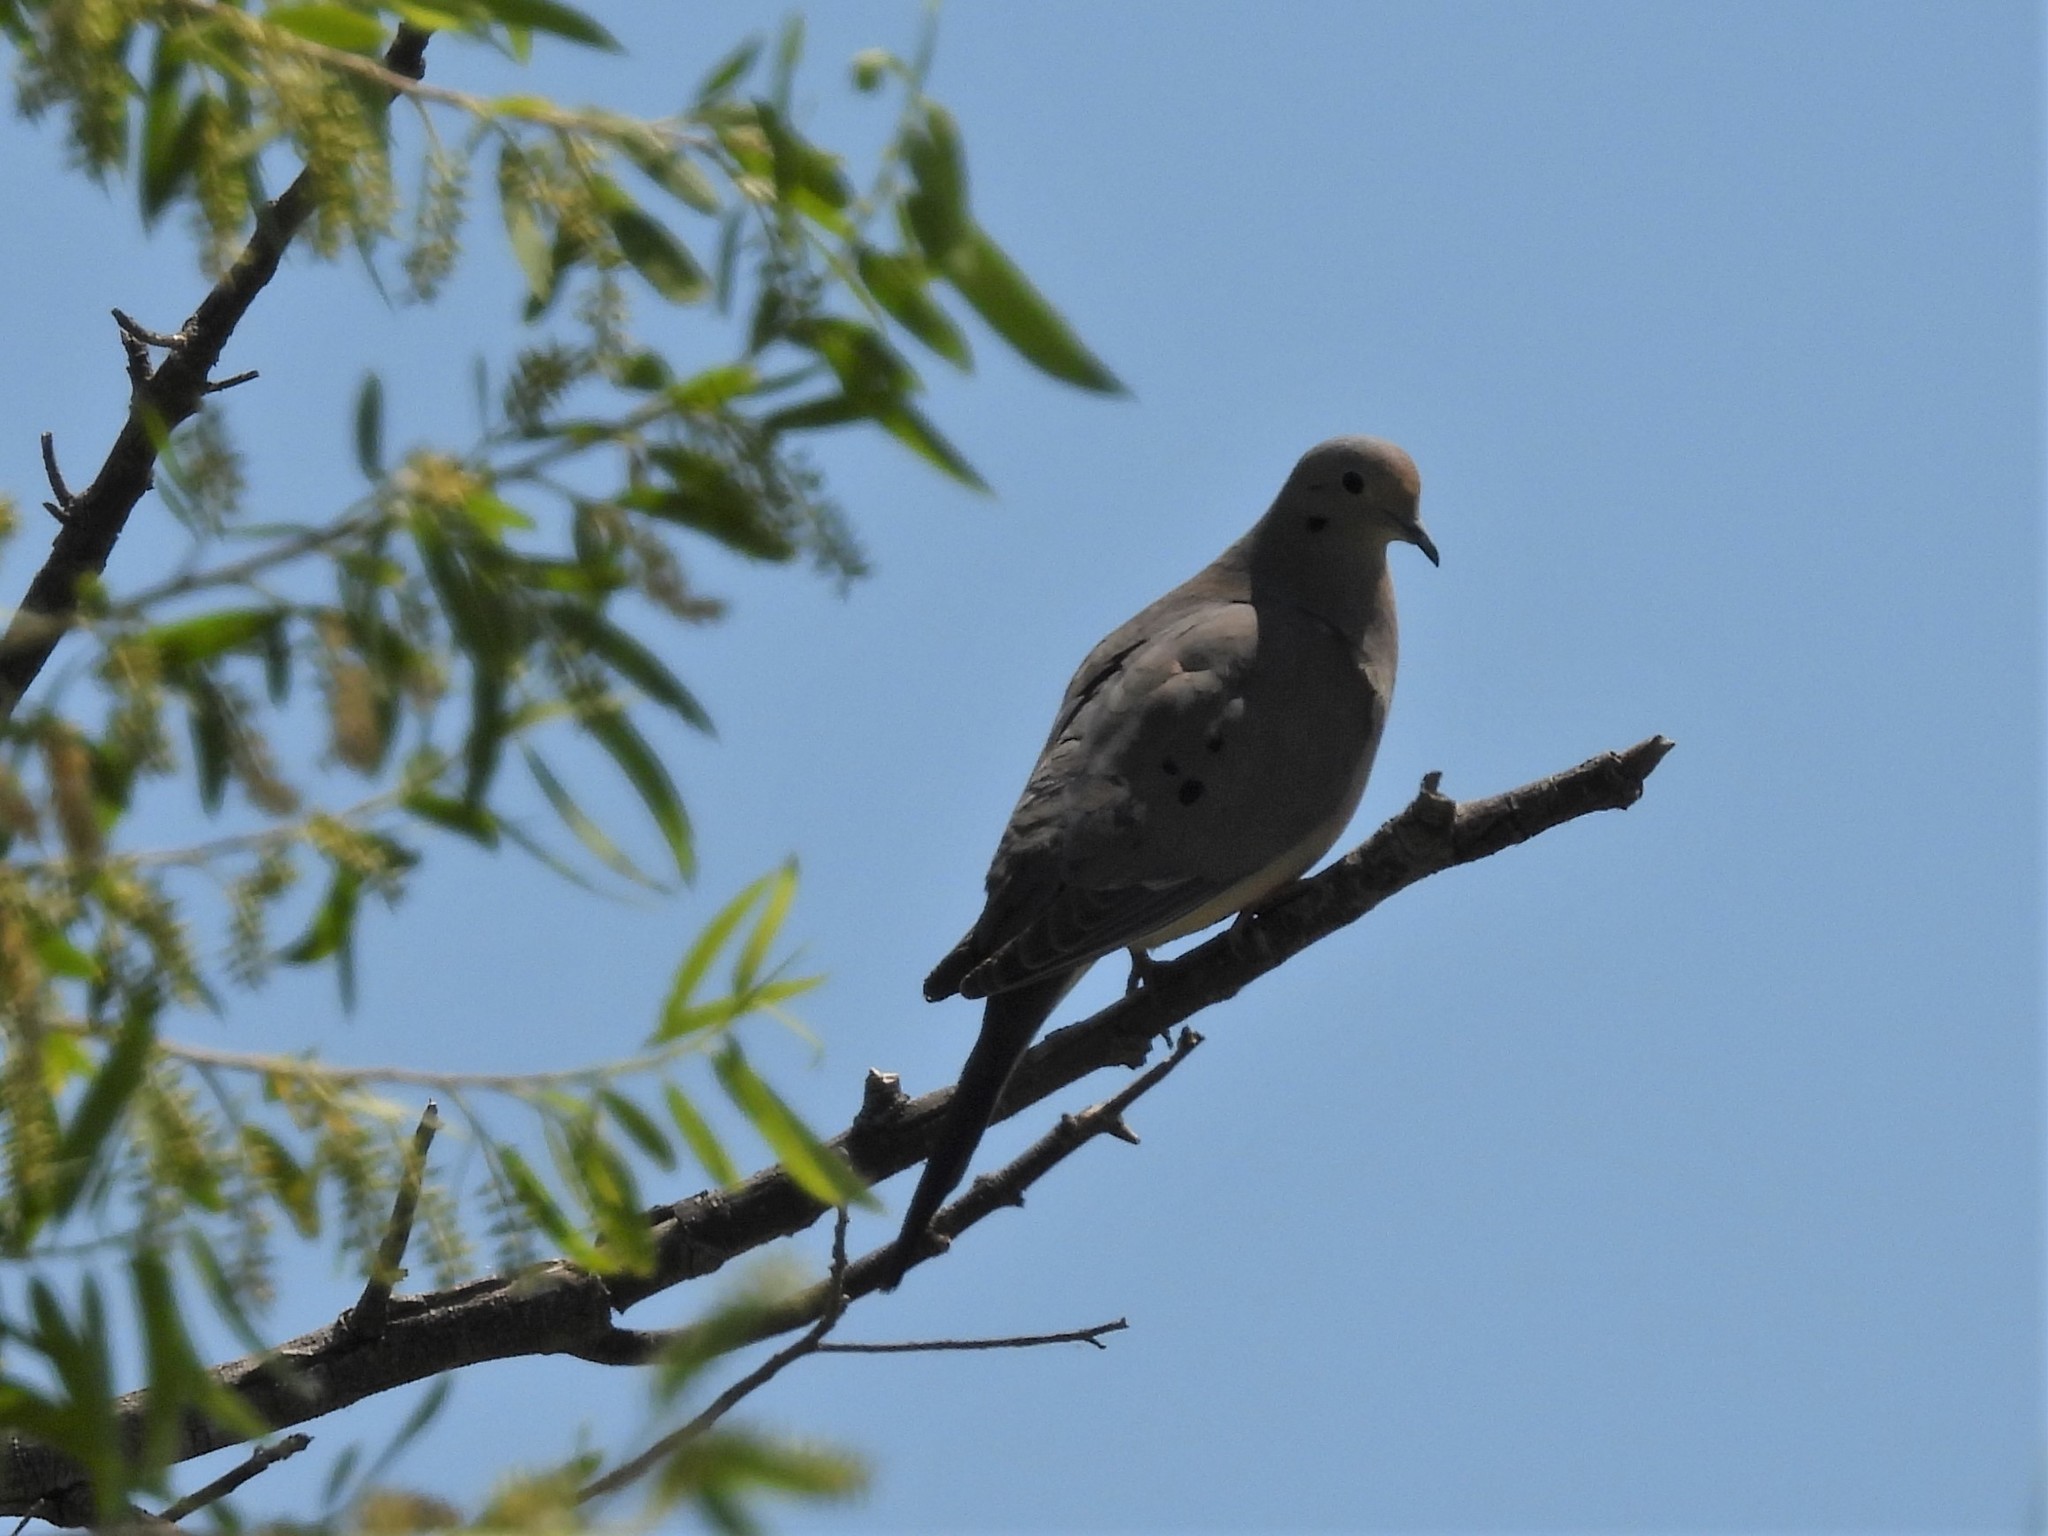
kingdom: Animalia
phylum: Chordata
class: Aves
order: Columbiformes
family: Columbidae
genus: Zenaida
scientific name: Zenaida macroura
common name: Mourning dove
